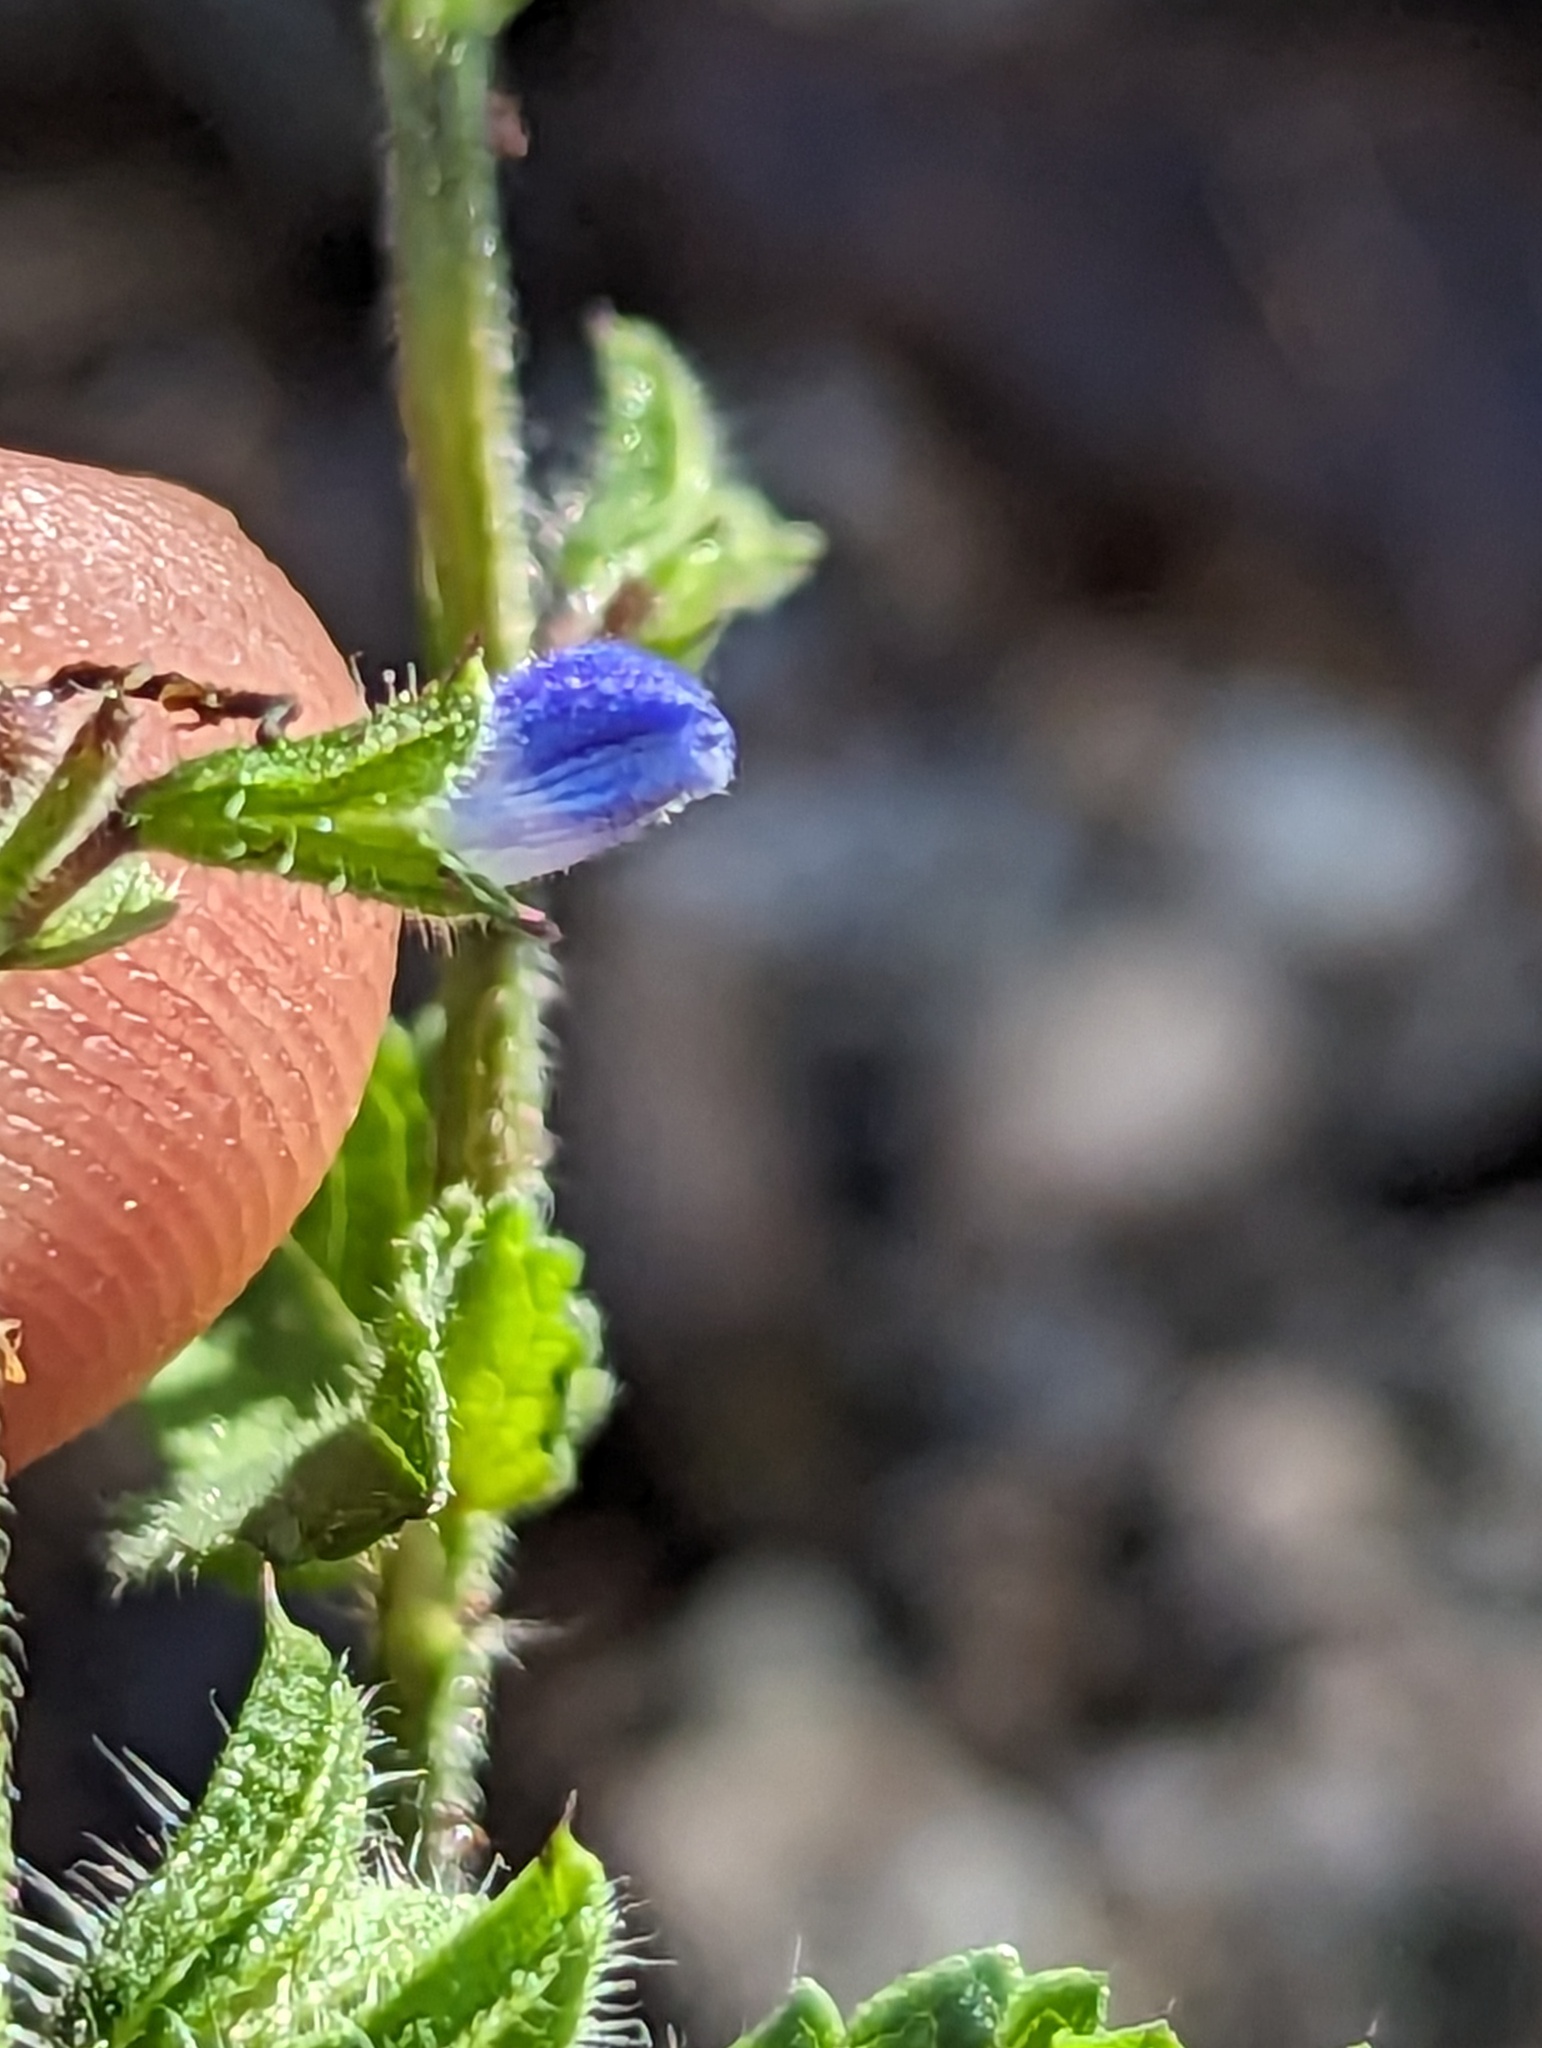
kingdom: Plantae
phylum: Tracheophyta
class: Magnoliopsida
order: Lamiales
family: Lamiaceae
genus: Salvia
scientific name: Salvia misella
